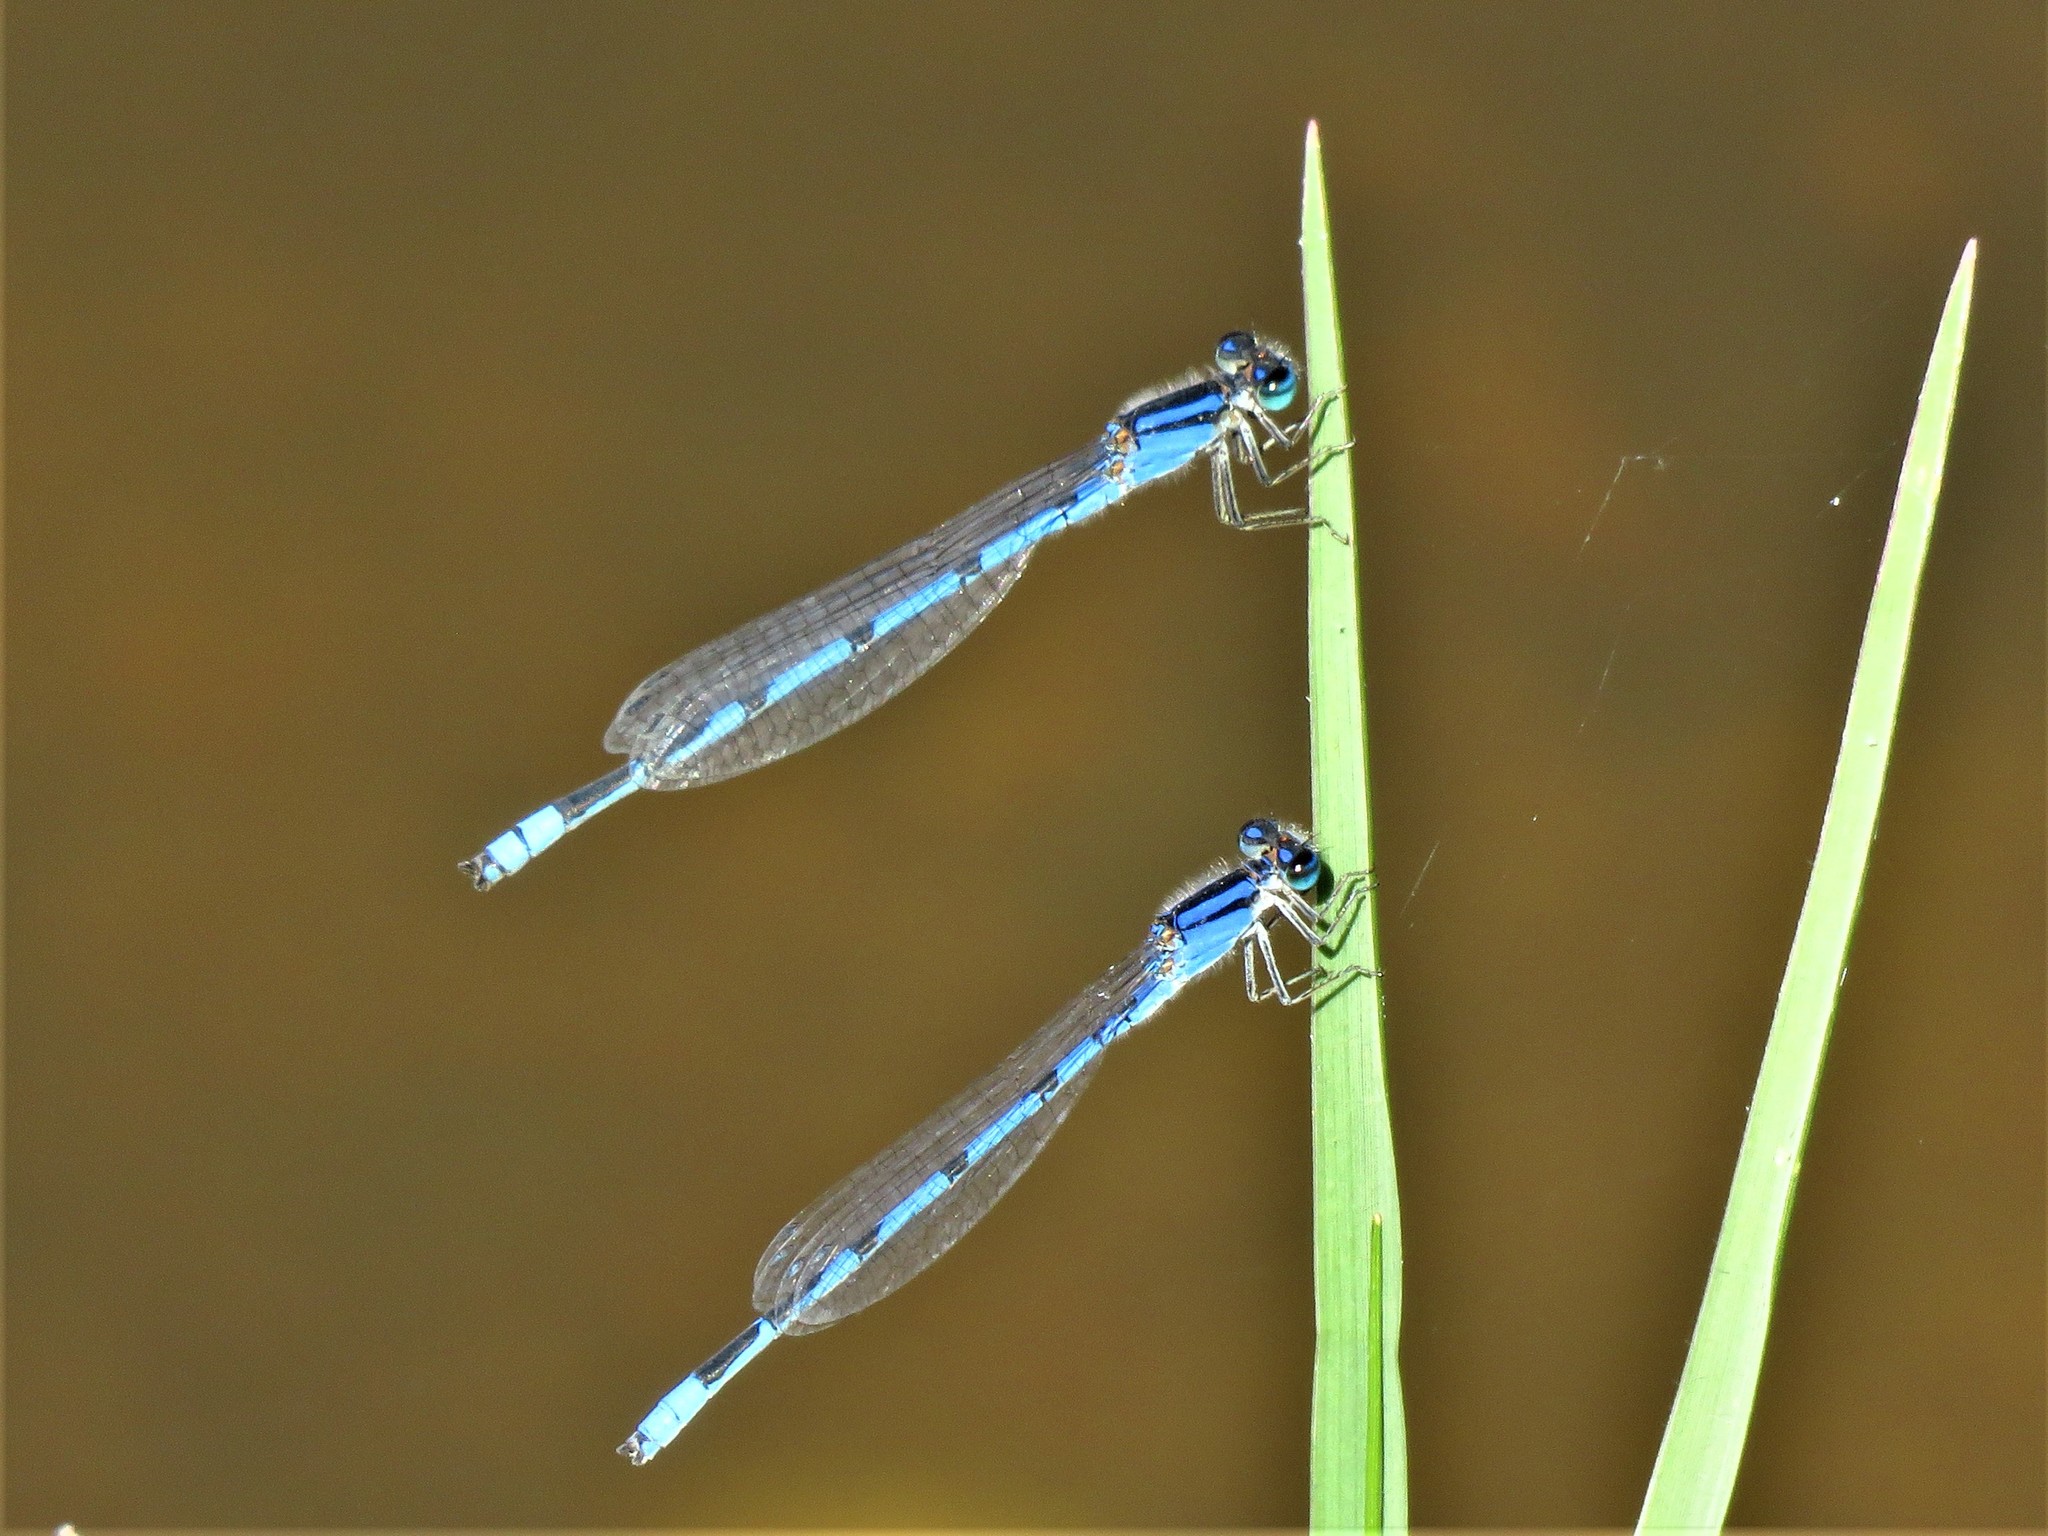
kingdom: Animalia
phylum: Arthropoda
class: Insecta
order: Odonata
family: Coenagrionidae
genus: Enallagma
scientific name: Enallagma civile
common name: Damselfly
